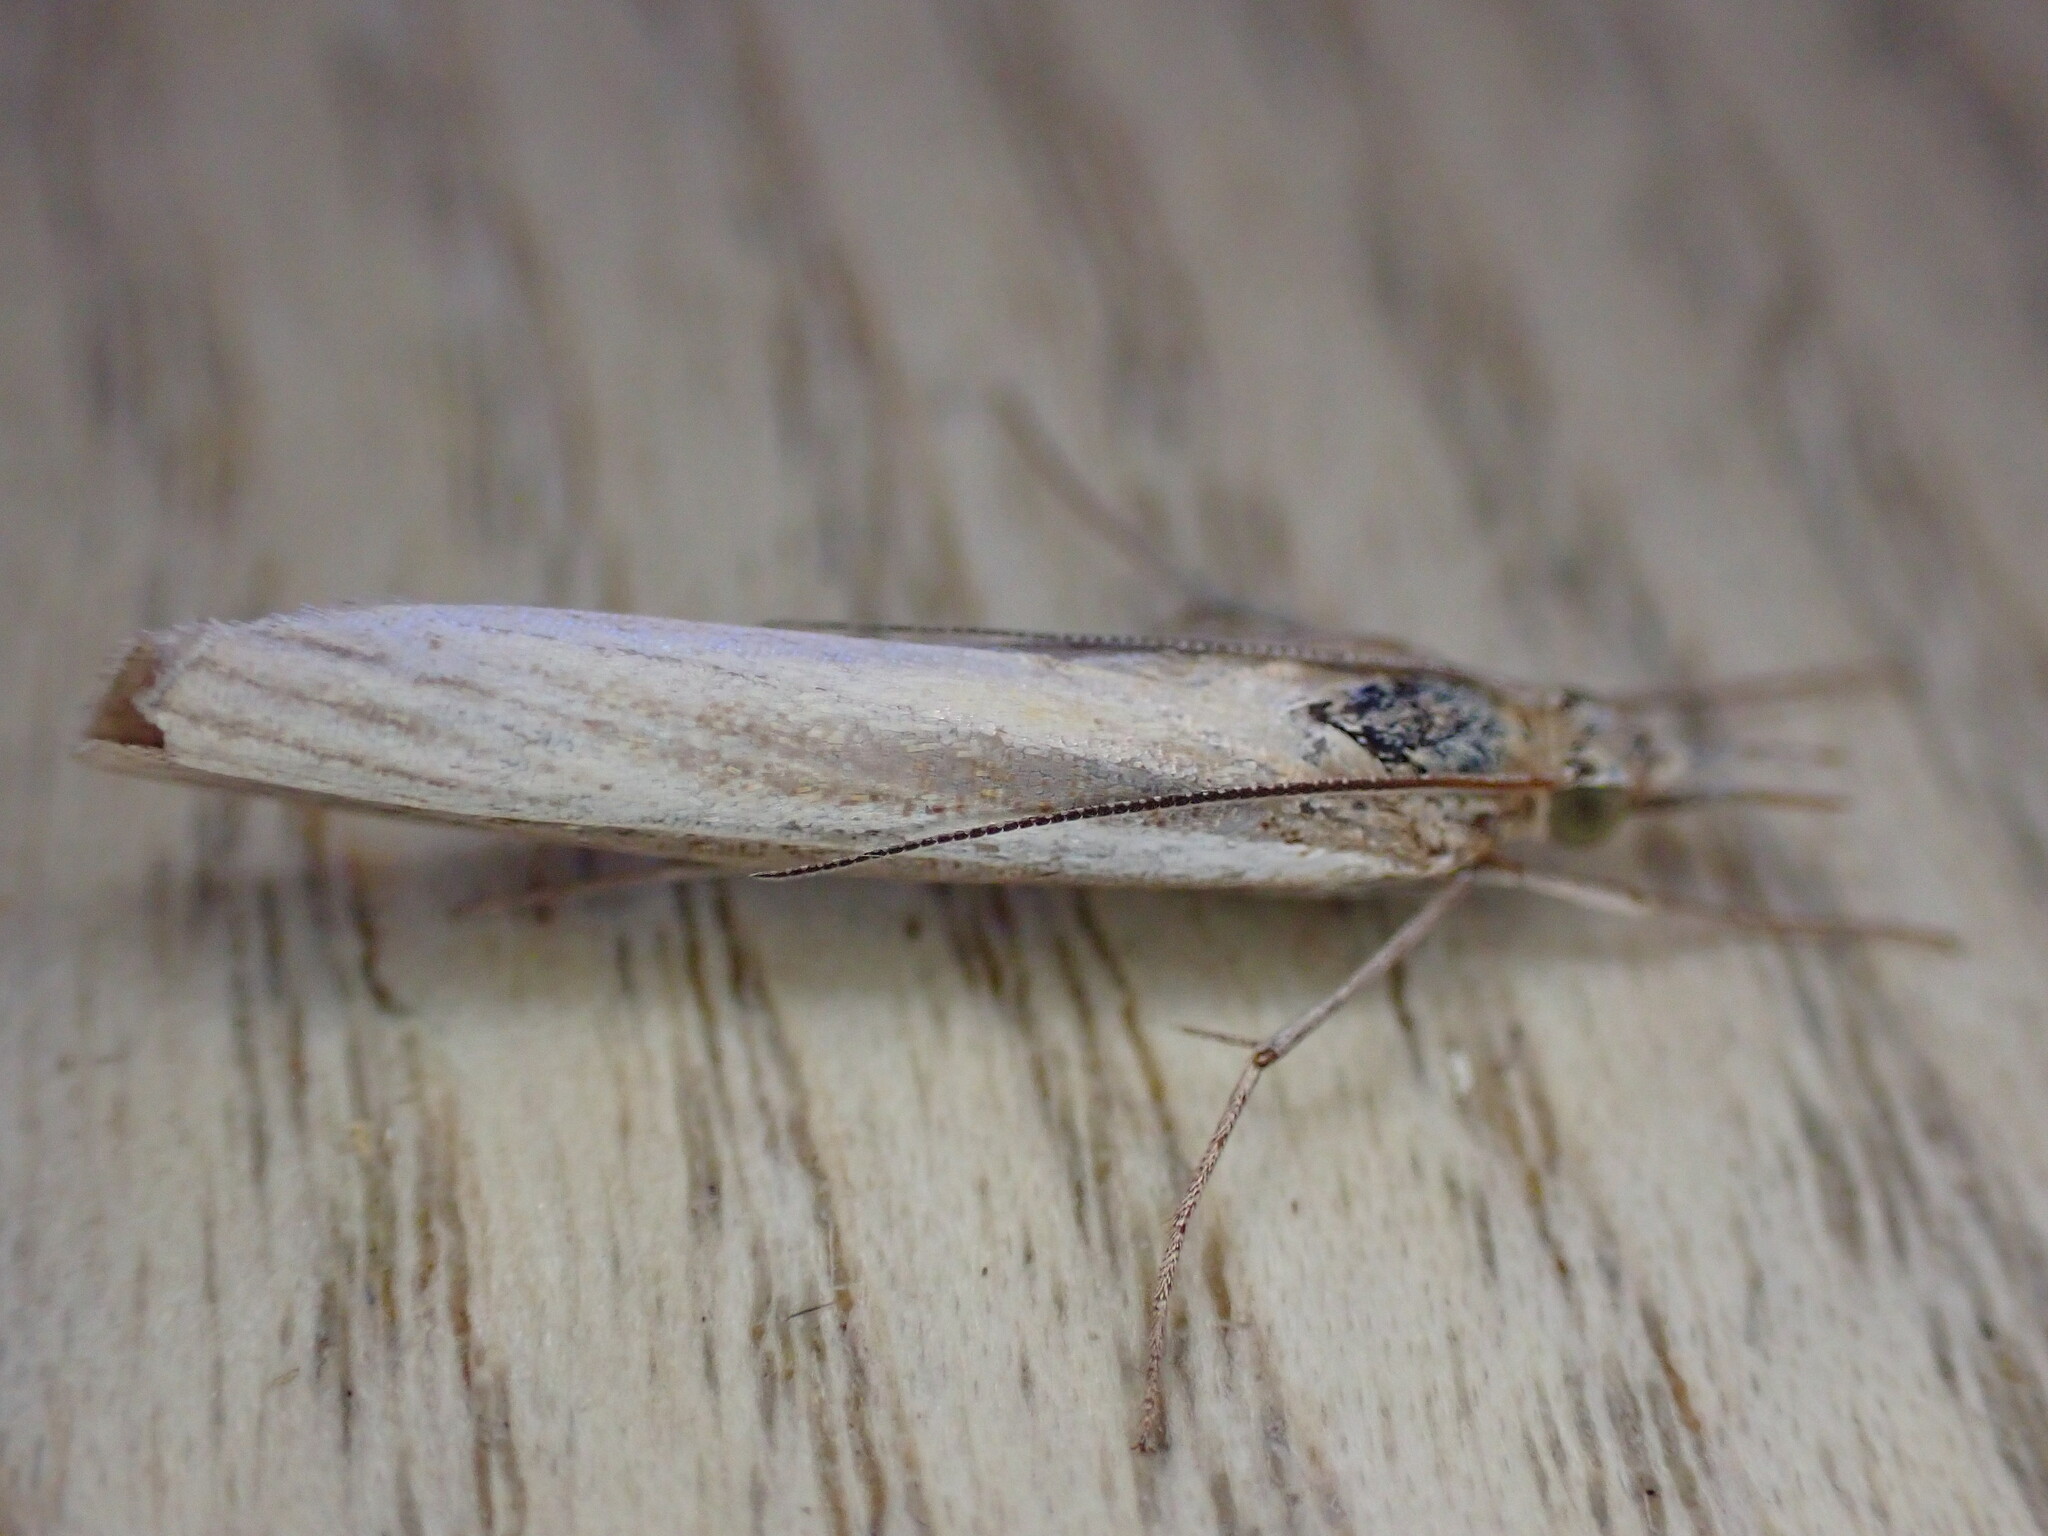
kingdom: Animalia
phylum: Arthropoda
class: Insecta
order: Lepidoptera
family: Crambidae
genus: Agriphila
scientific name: Agriphila tristellus
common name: Common grass-veneer
